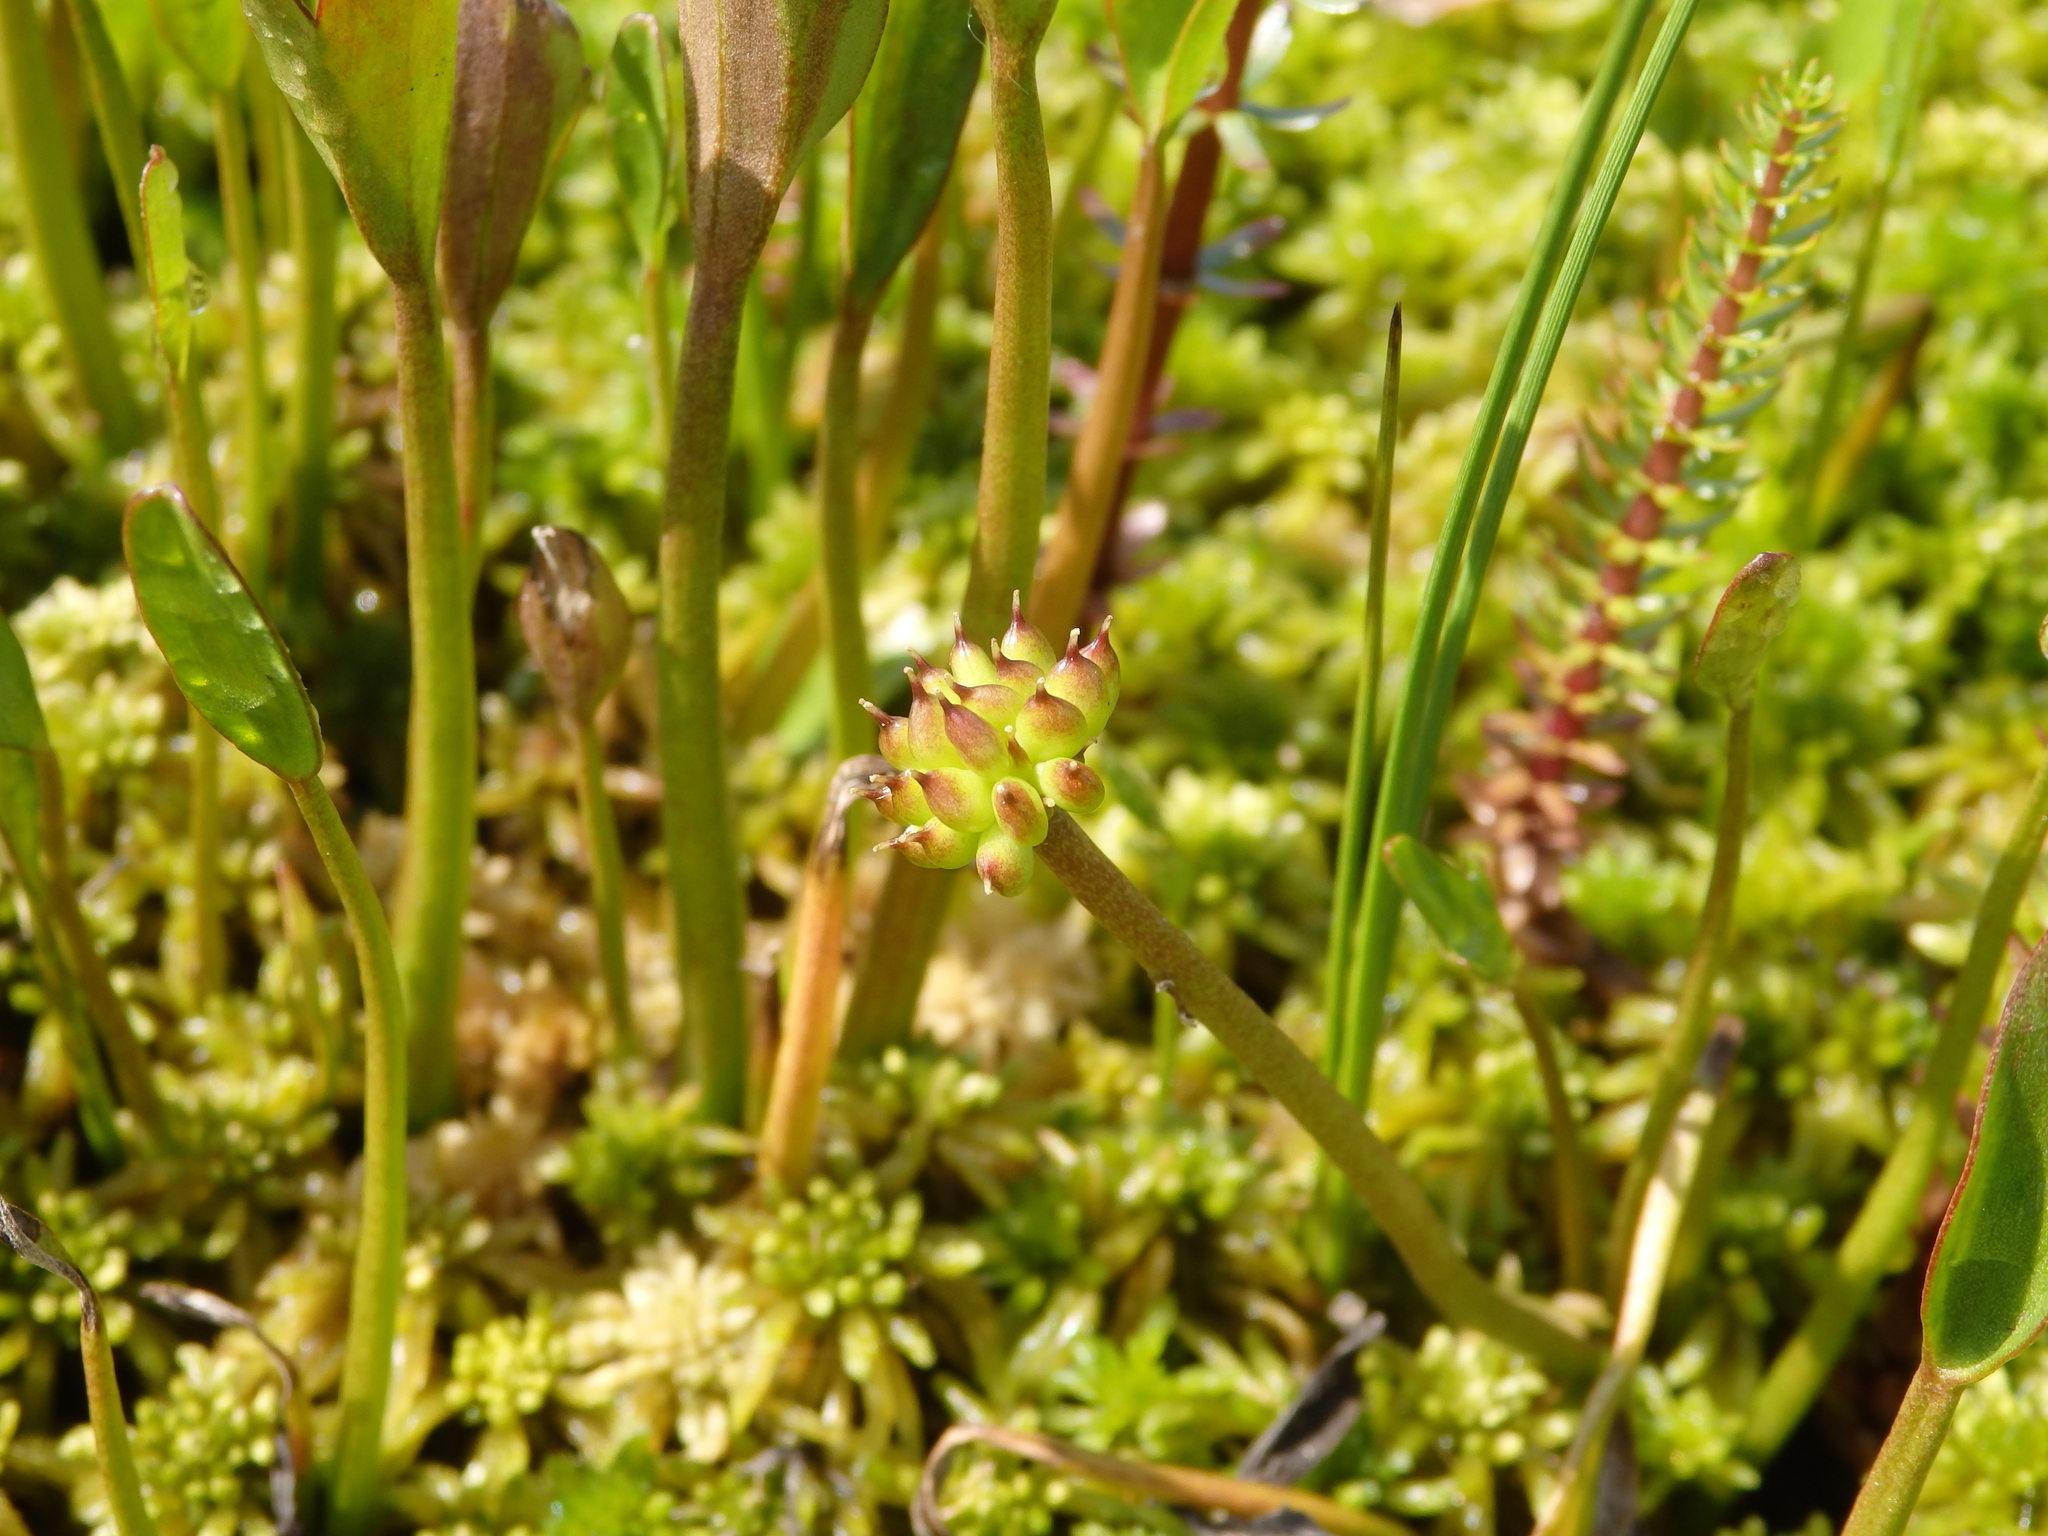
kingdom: Plantae
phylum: Tracheophyta
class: Magnoliopsida
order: Ranunculales
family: Ranunculaceae
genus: Coptidium
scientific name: Coptidium pallasii
